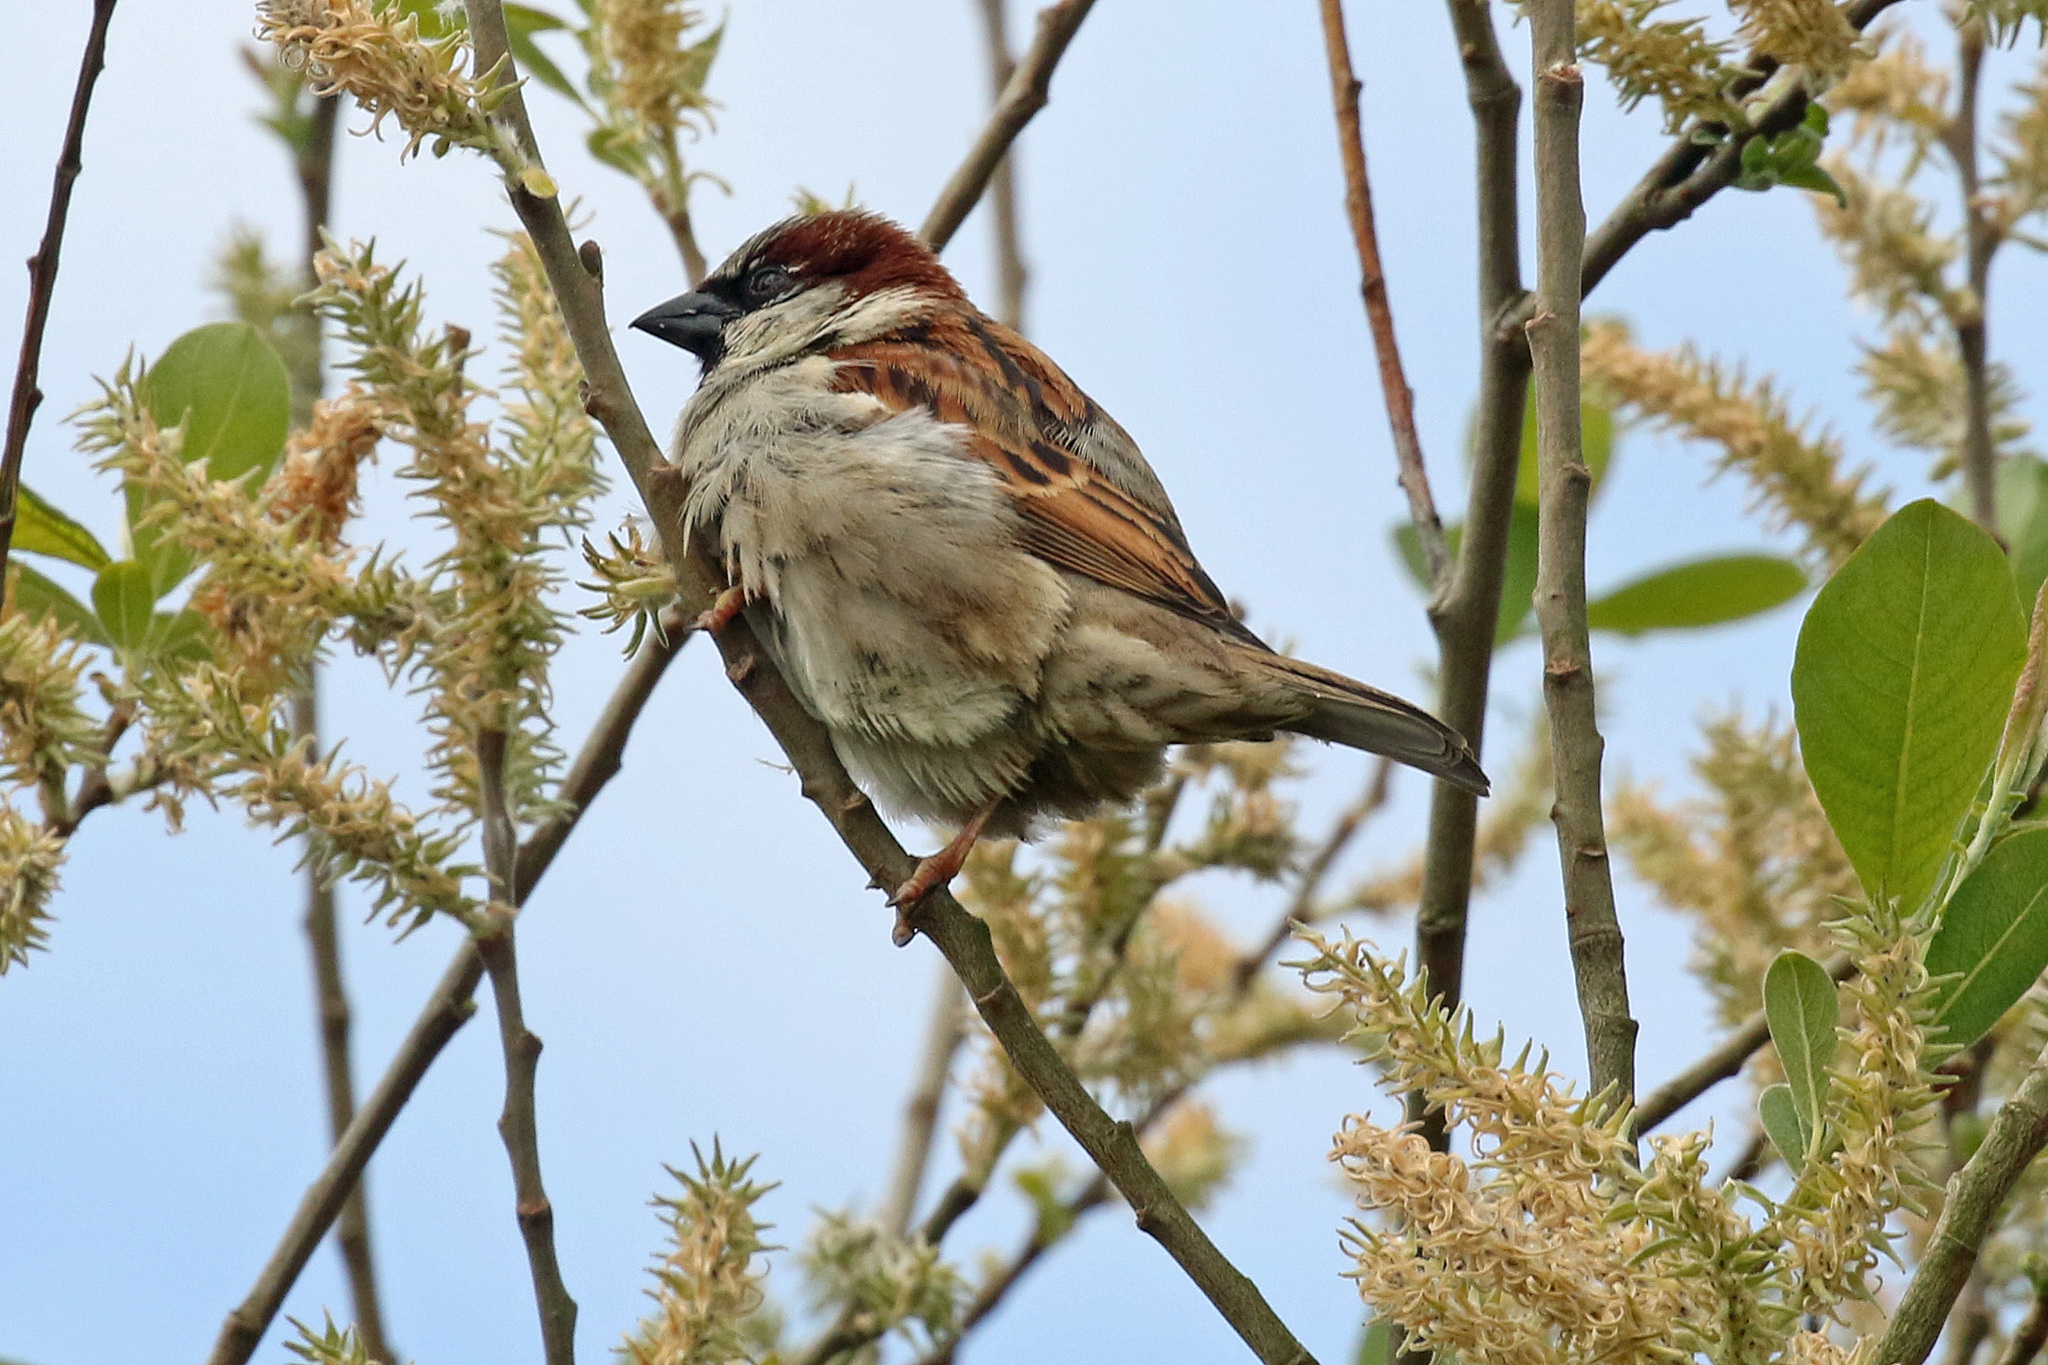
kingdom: Animalia
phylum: Chordata
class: Aves
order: Passeriformes
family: Passeridae
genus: Passer
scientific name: Passer domesticus
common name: House sparrow
